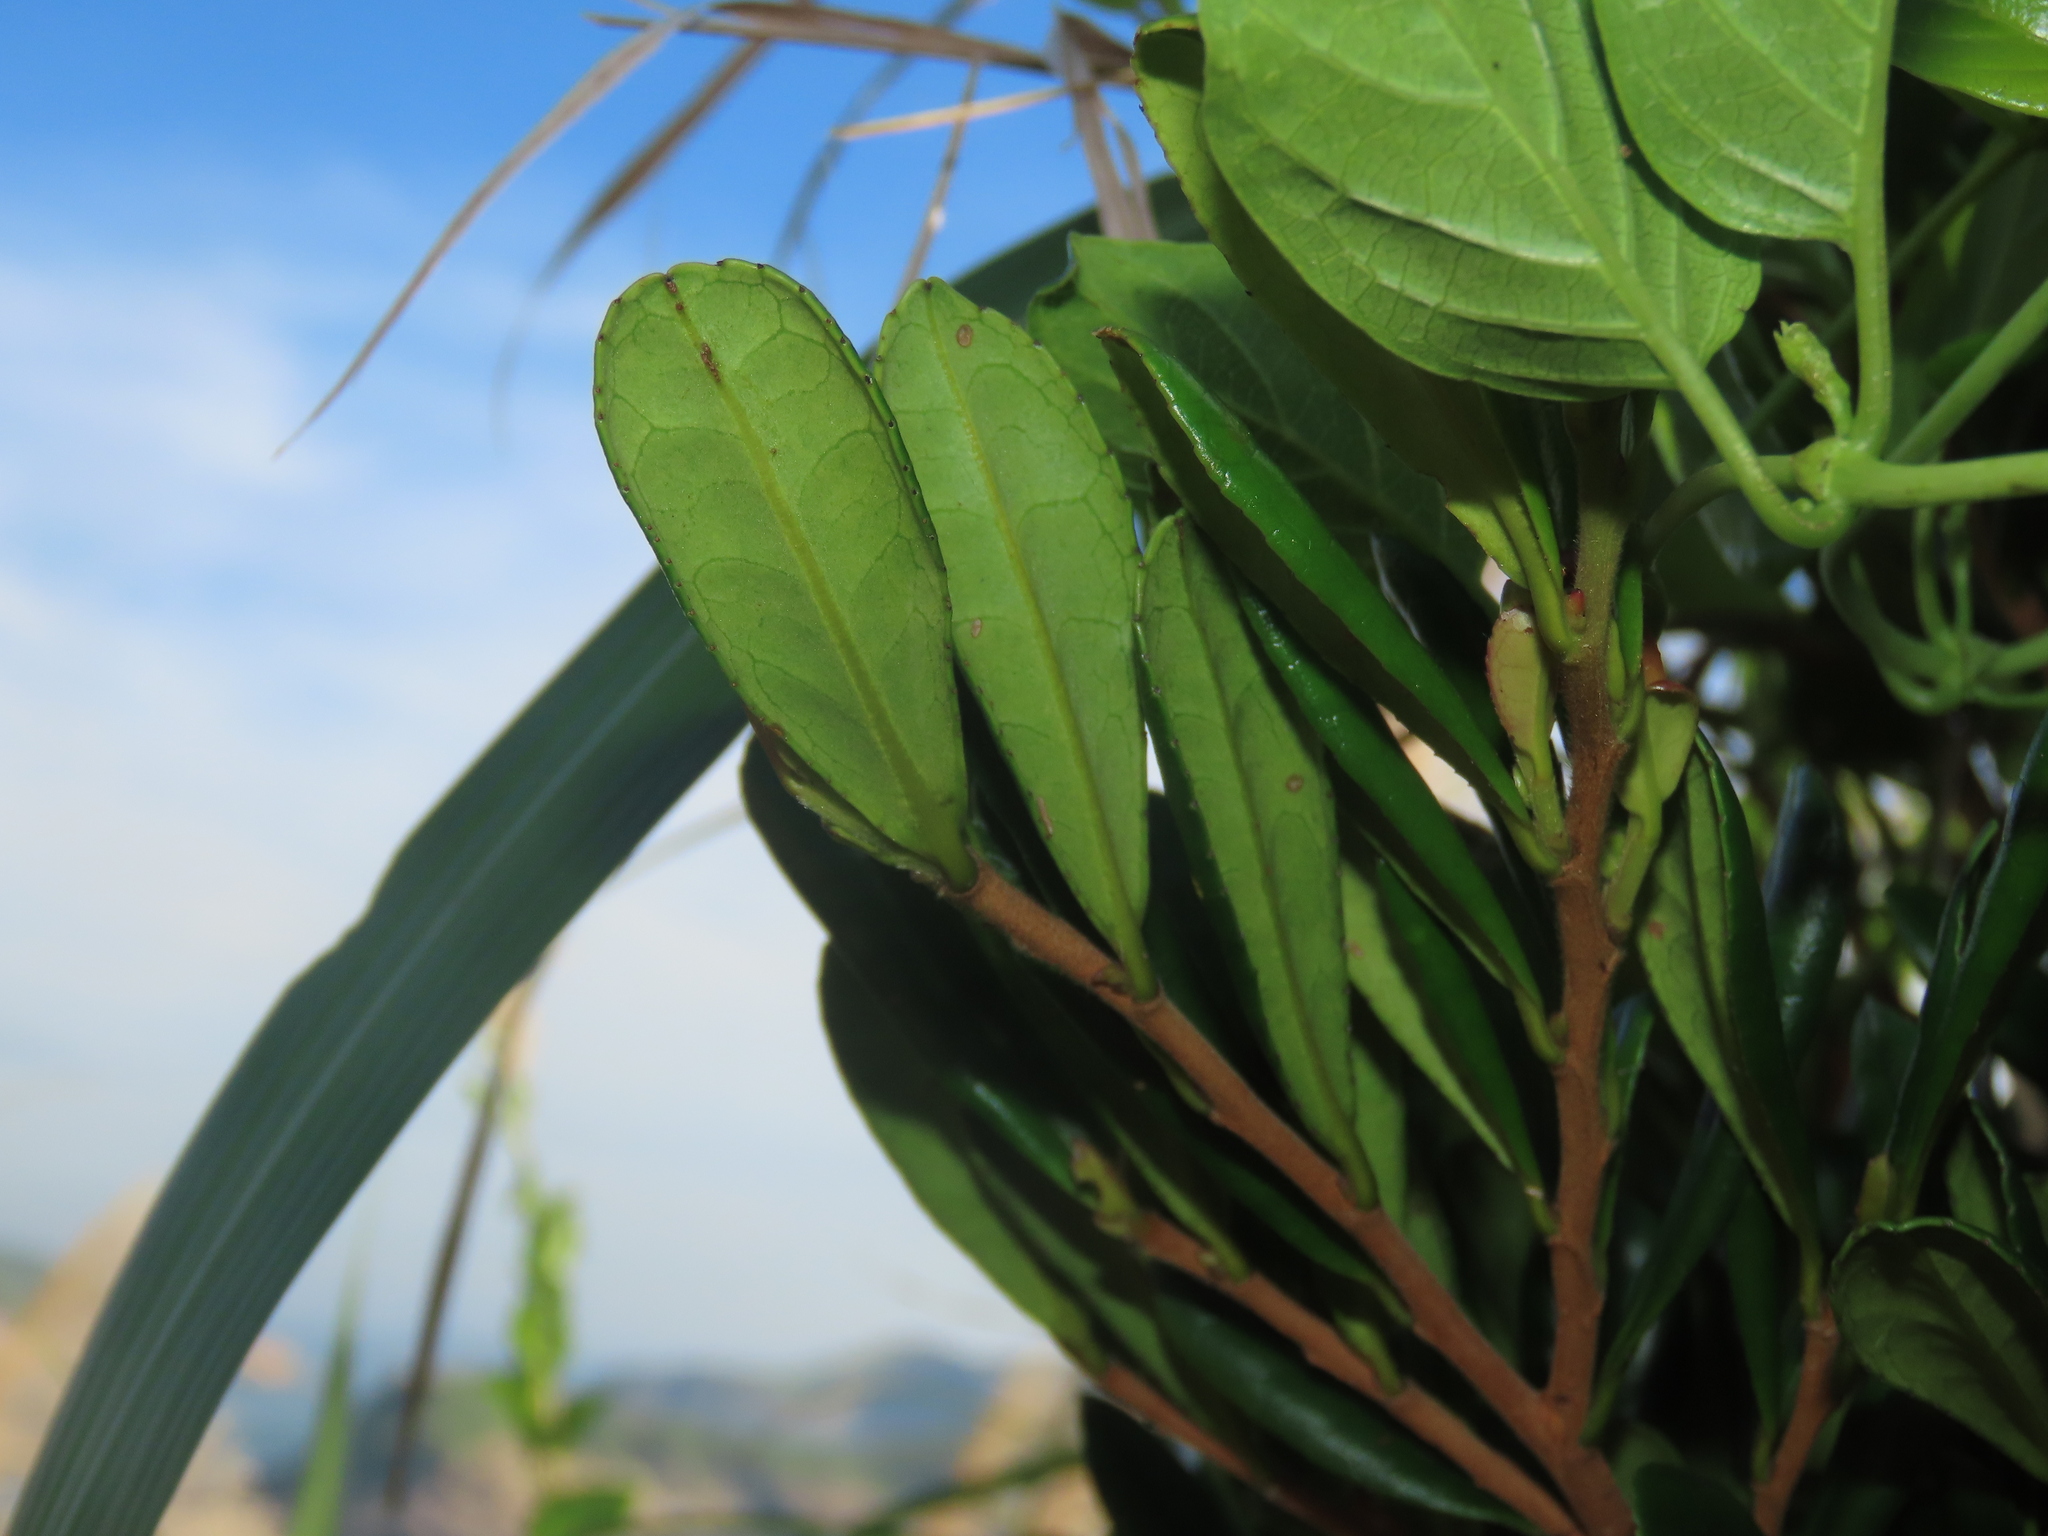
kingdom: Plantae
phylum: Tracheophyta
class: Magnoliopsida
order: Ericales
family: Pentaphylacaceae
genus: Eurya
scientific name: Eurya emarginata
